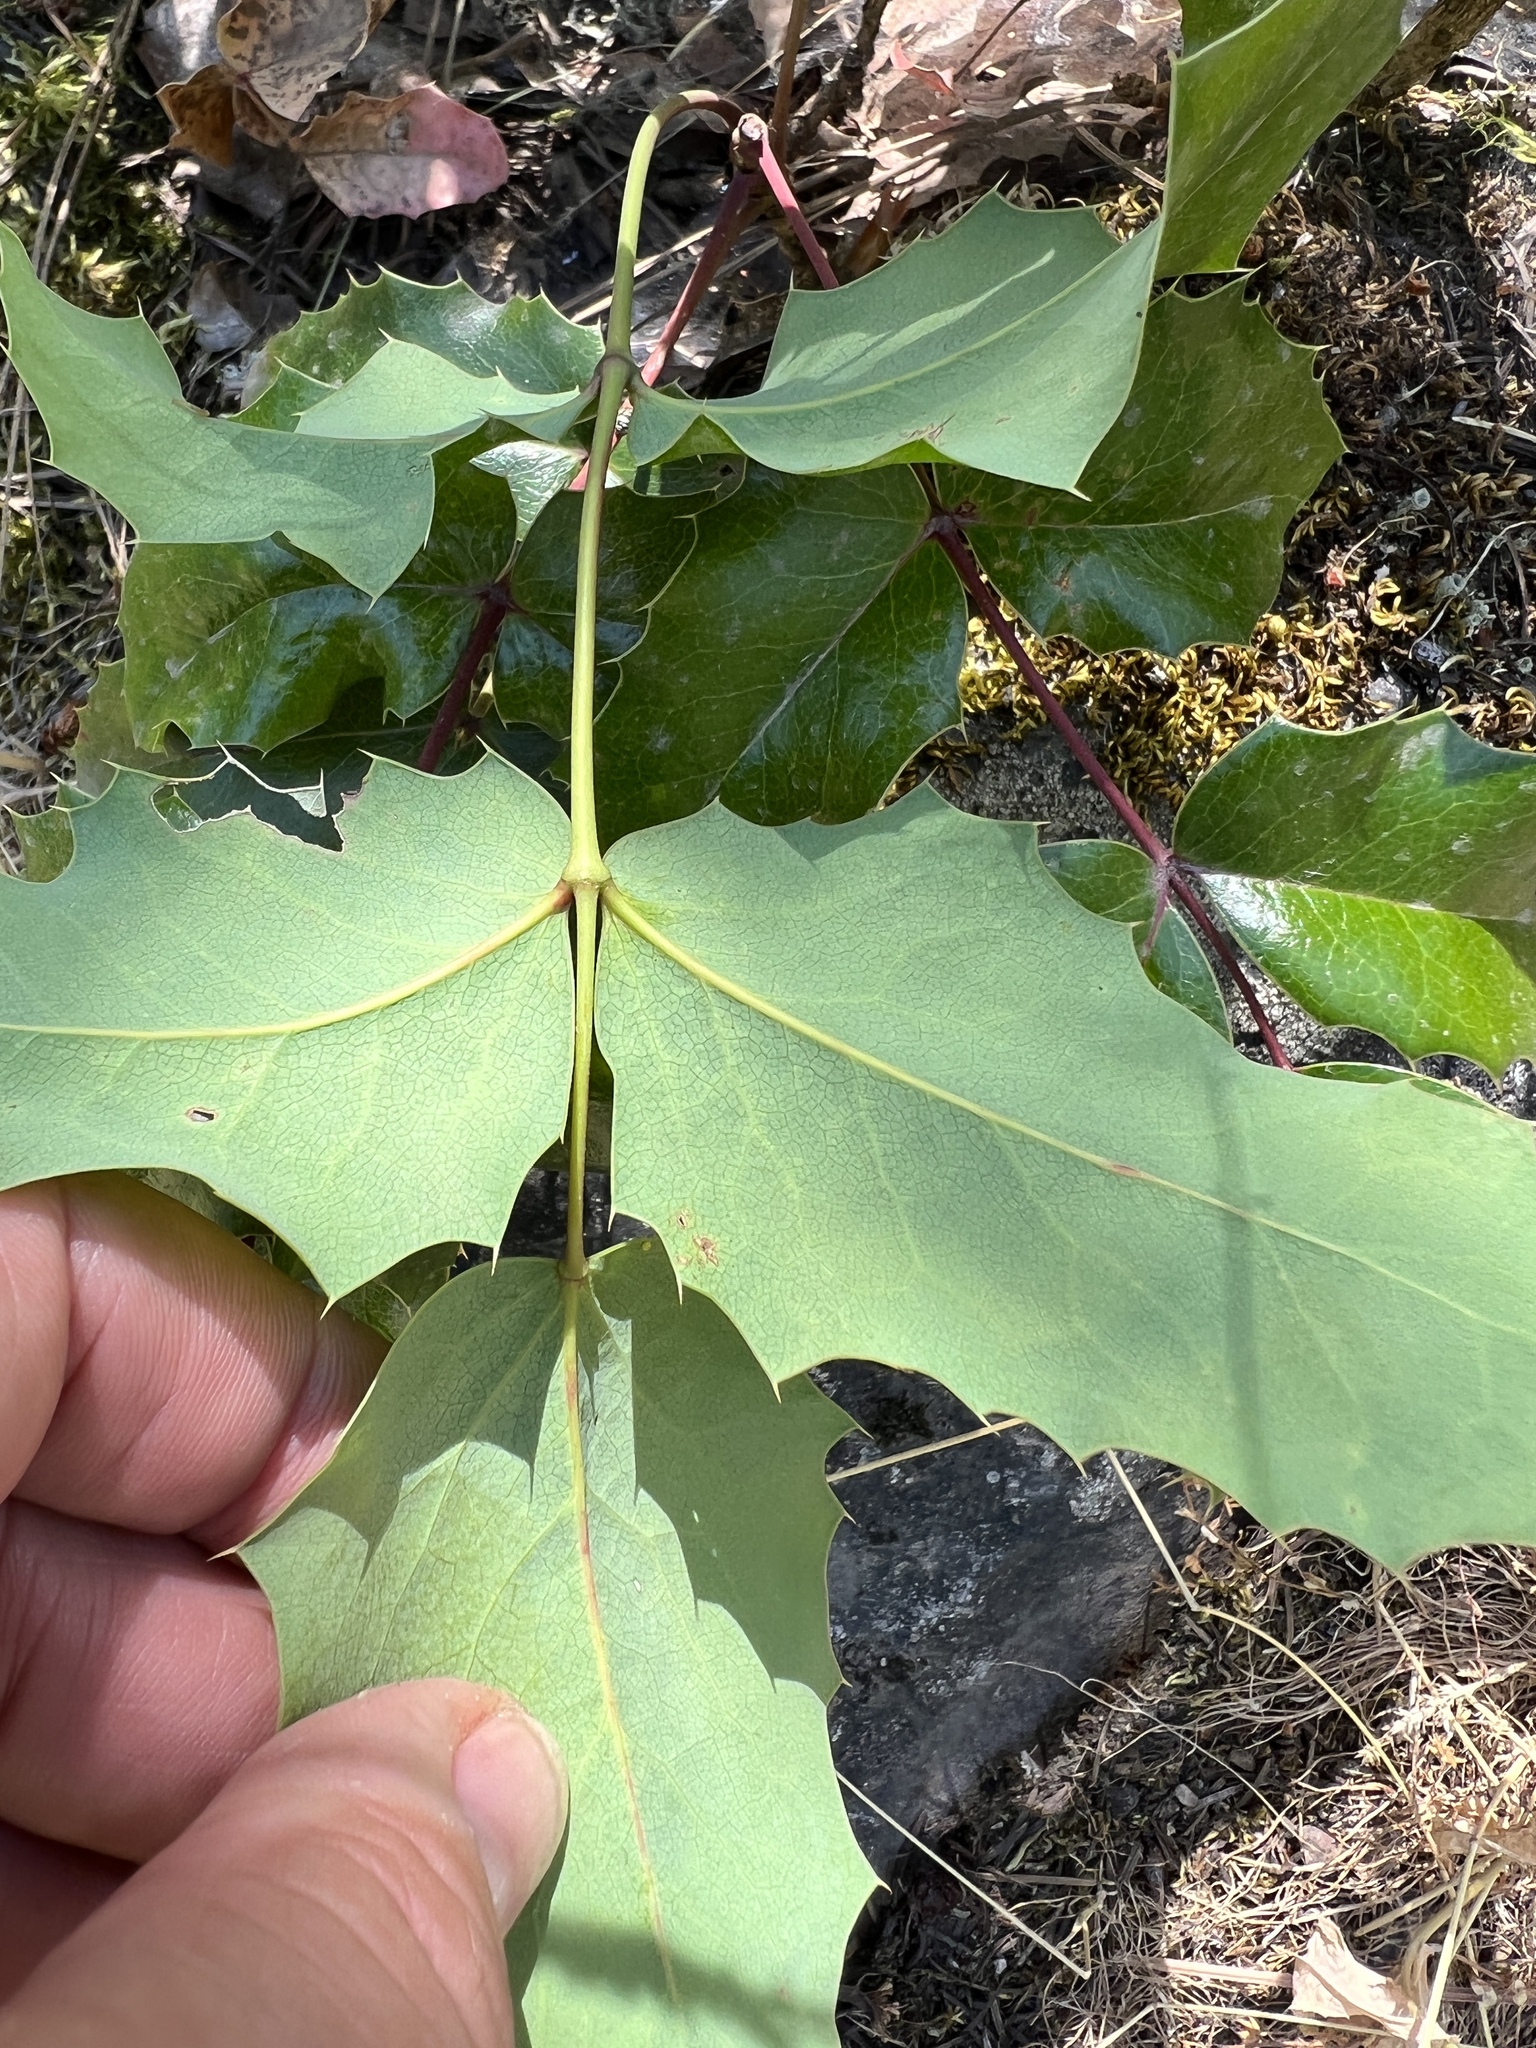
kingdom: Plantae
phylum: Tracheophyta
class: Magnoliopsida
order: Ranunculales
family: Berberidaceae
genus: Mahonia
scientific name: Mahonia aquifolium
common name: Oregon-grape
